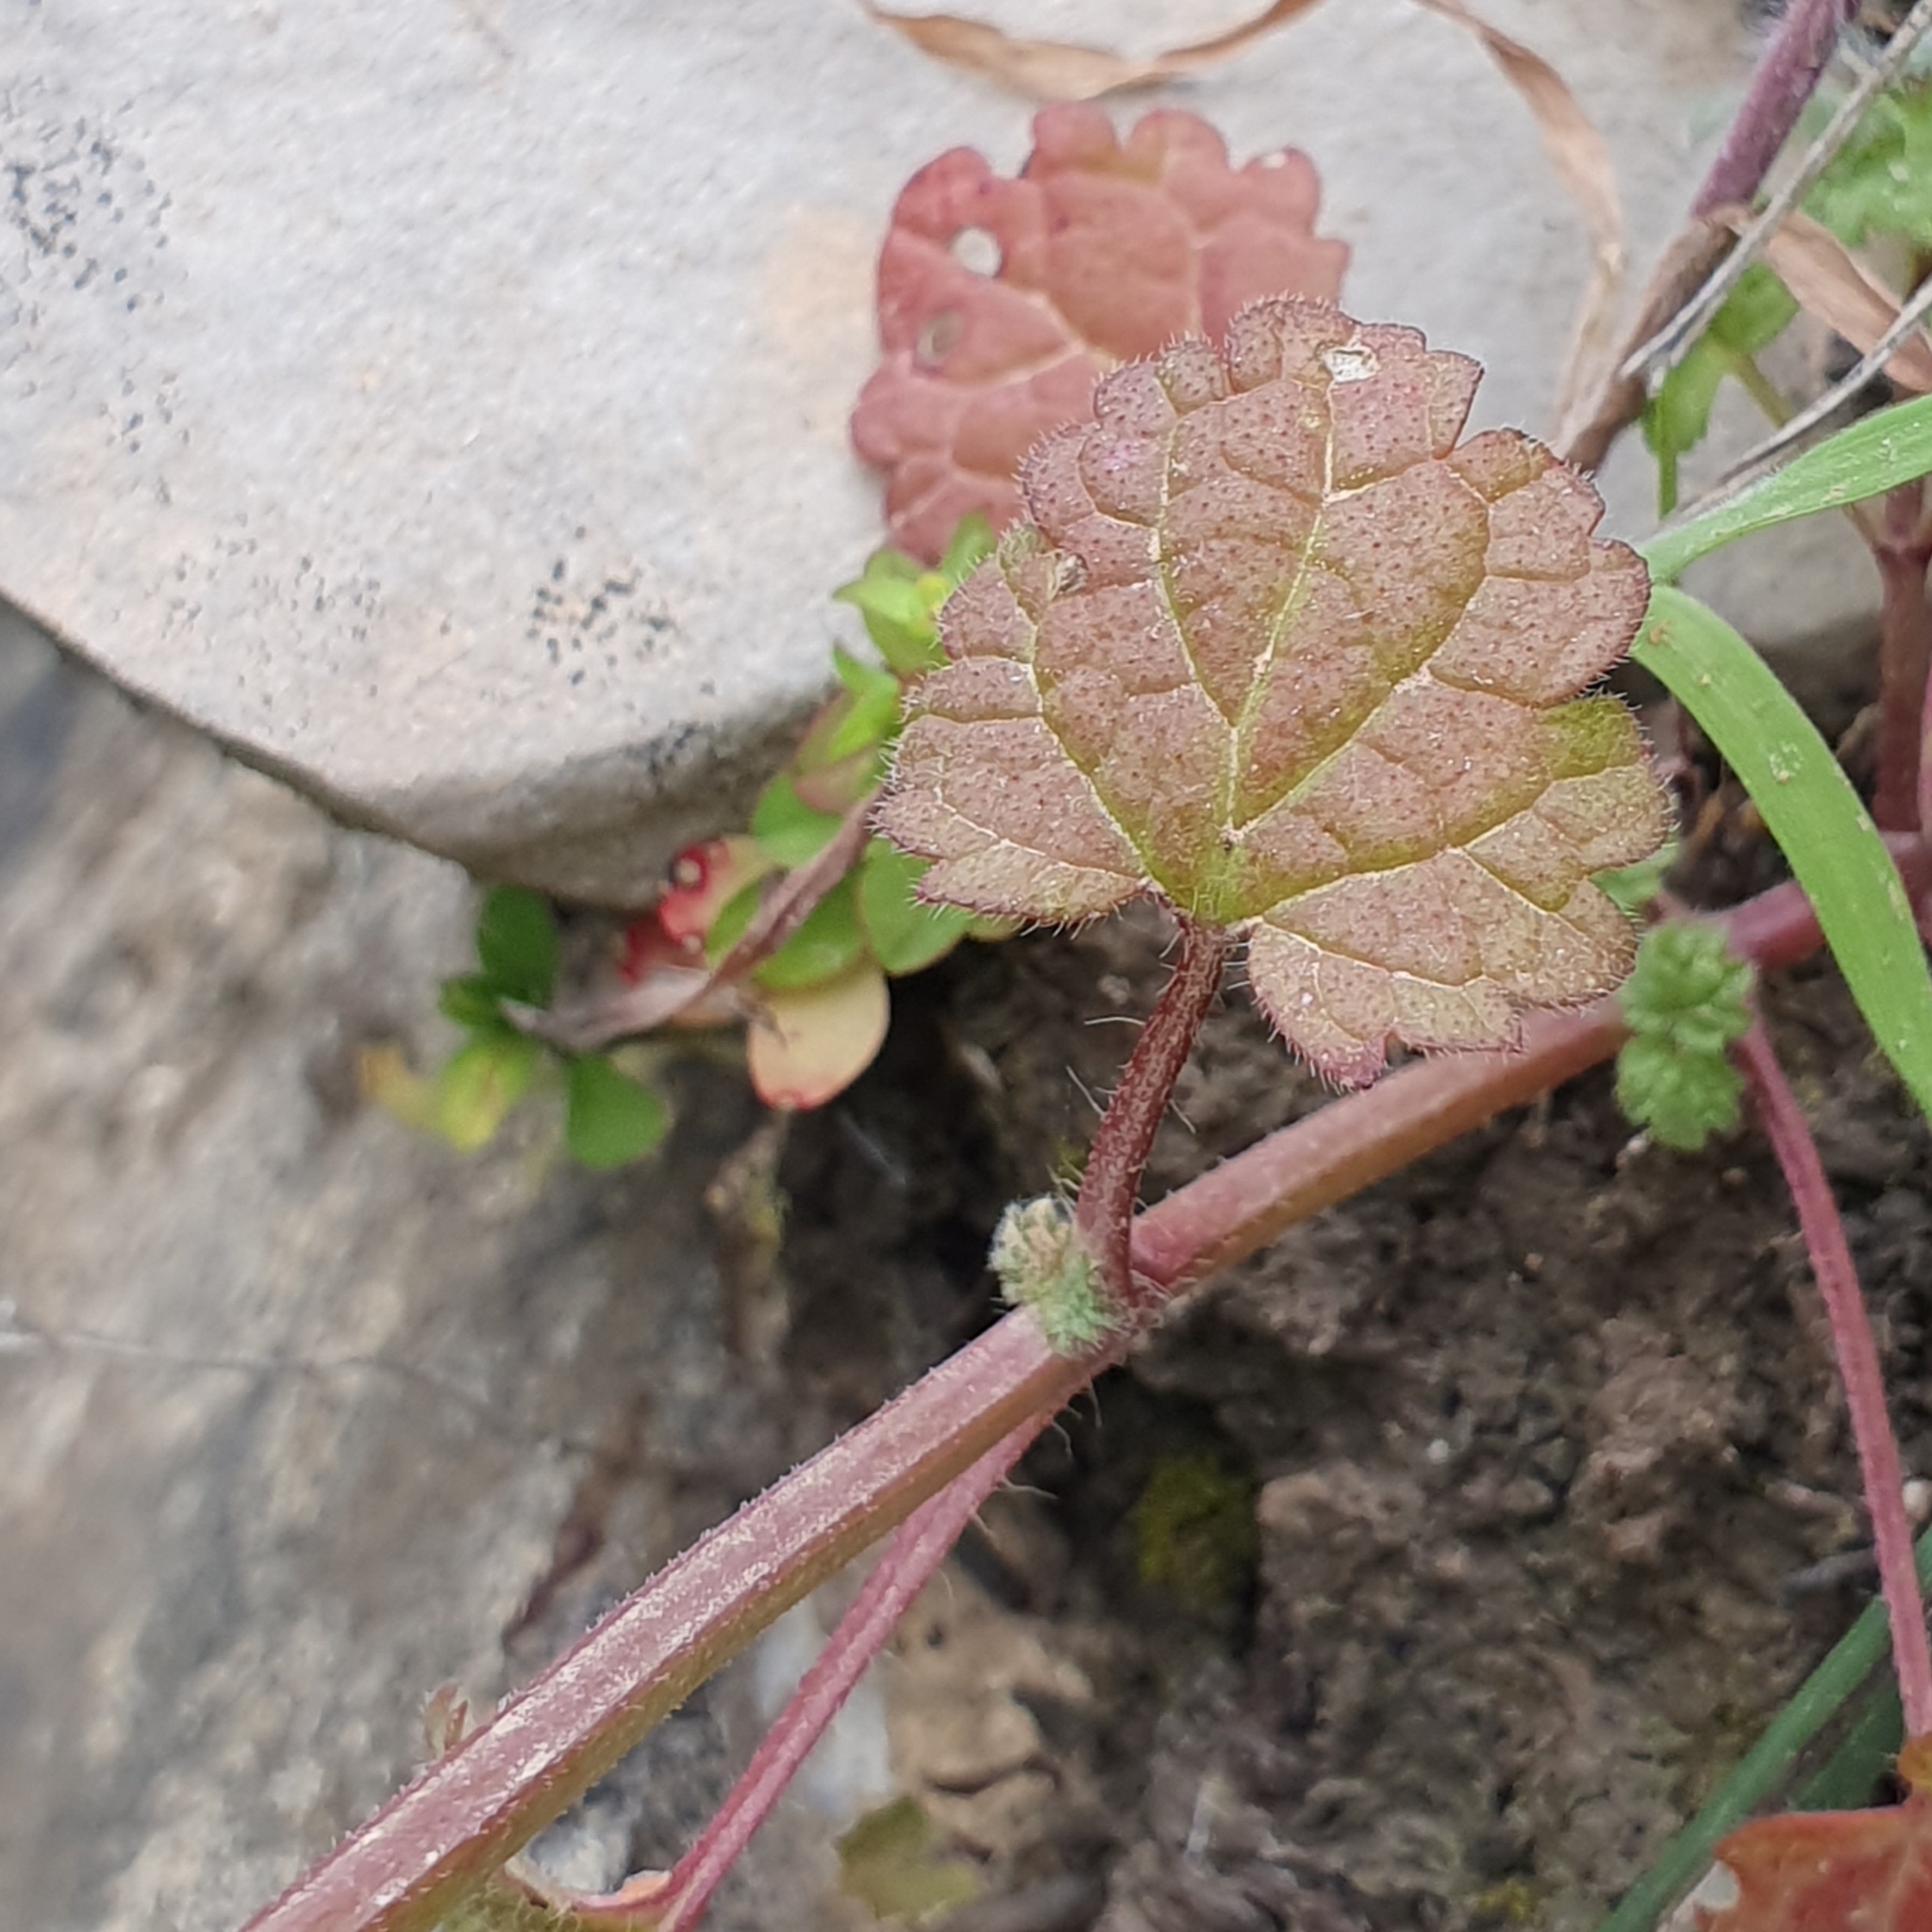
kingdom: Plantae
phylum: Tracheophyta
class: Magnoliopsida
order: Lamiales
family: Lamiaceae
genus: Lamium
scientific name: Lamium amplexicaule
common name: Henbit dead-nettle
